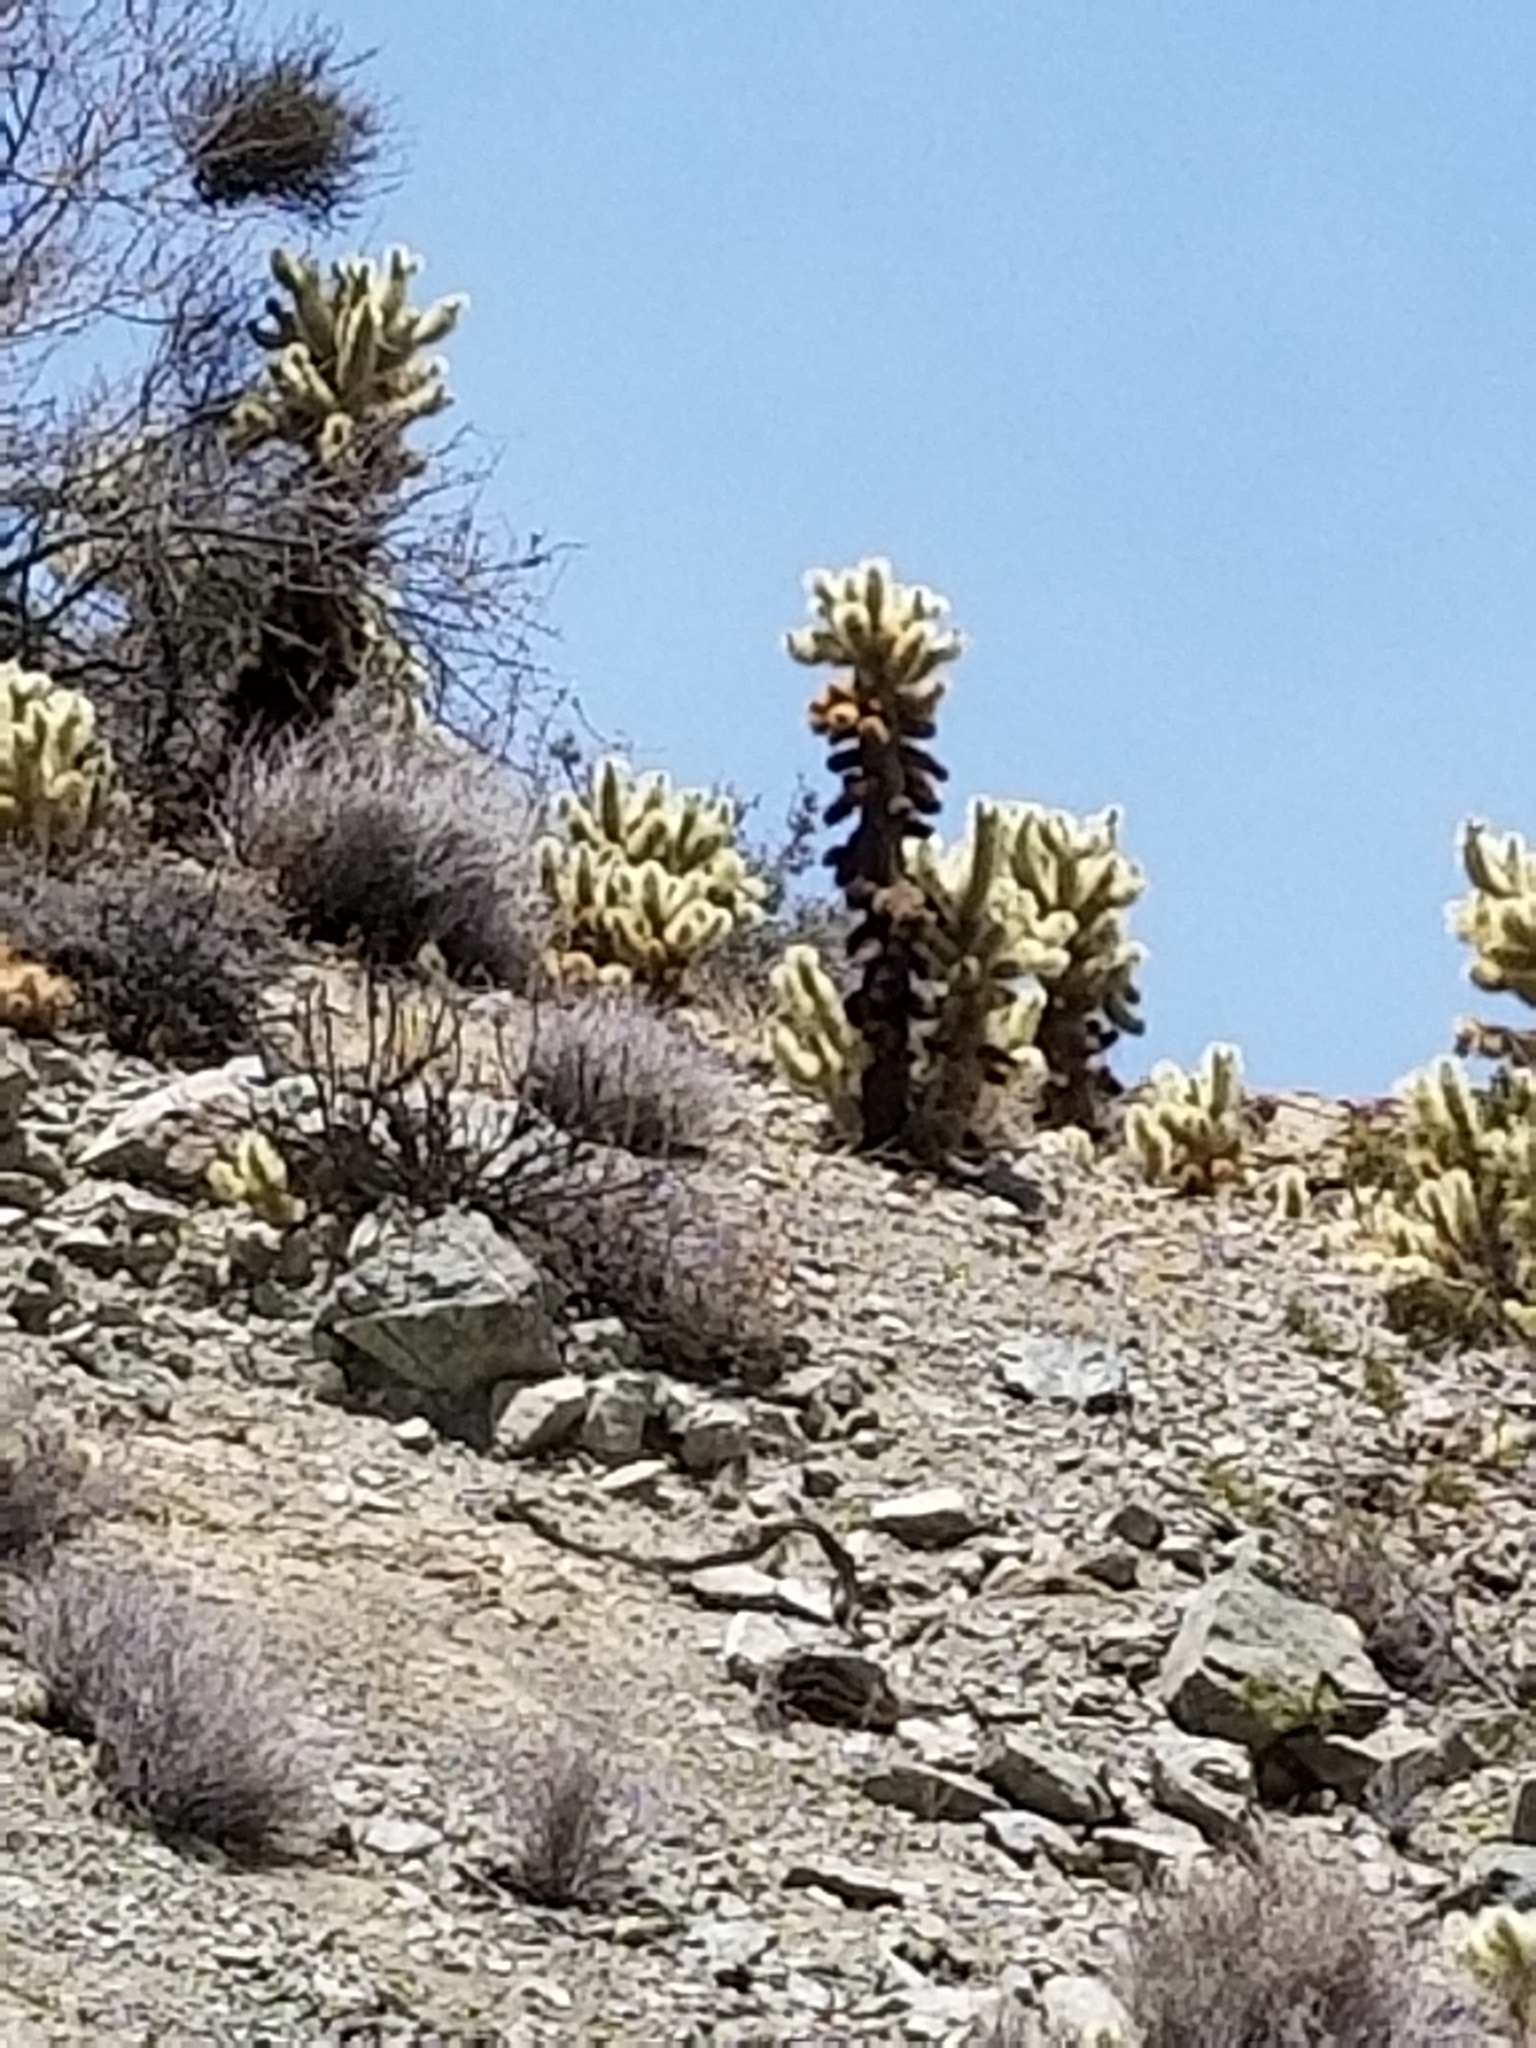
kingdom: Plantae
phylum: Tracheophyta
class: Magnoliopsida
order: Caryophyllales
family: Cactaceae
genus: Cylindropuntia
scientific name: Cylindropuntia fosbergii
